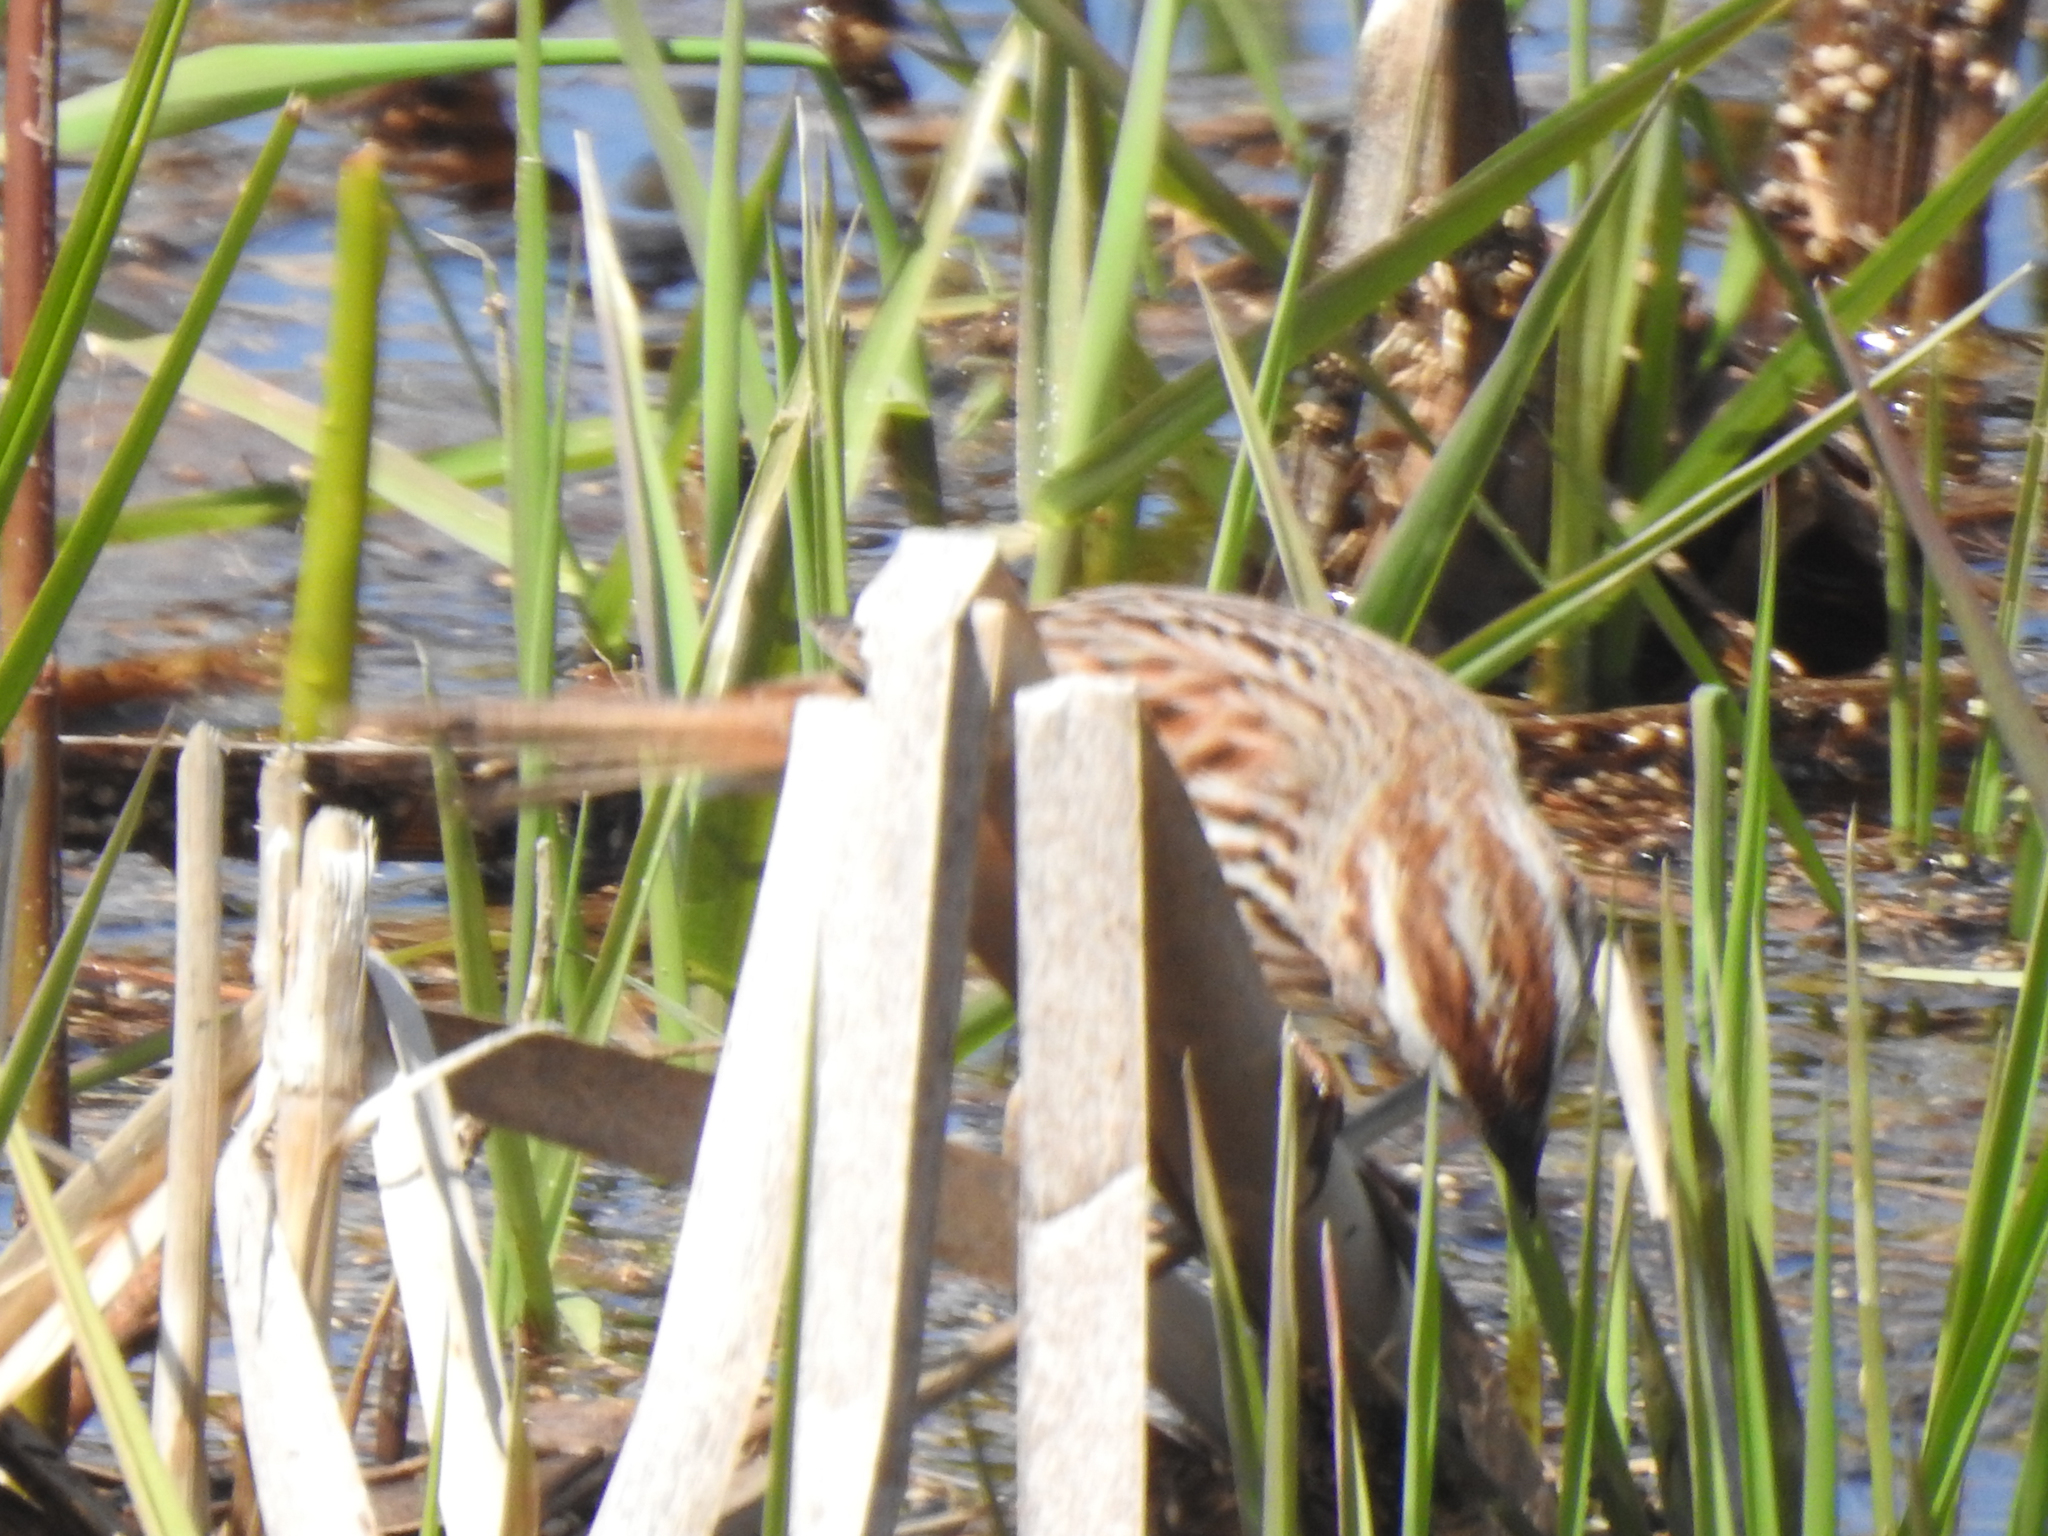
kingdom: Animalia
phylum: Chordata
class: Aves
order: Passeriformes
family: Passerellidae
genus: Melospiza
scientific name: Melospiza melodia
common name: Song sparrow
